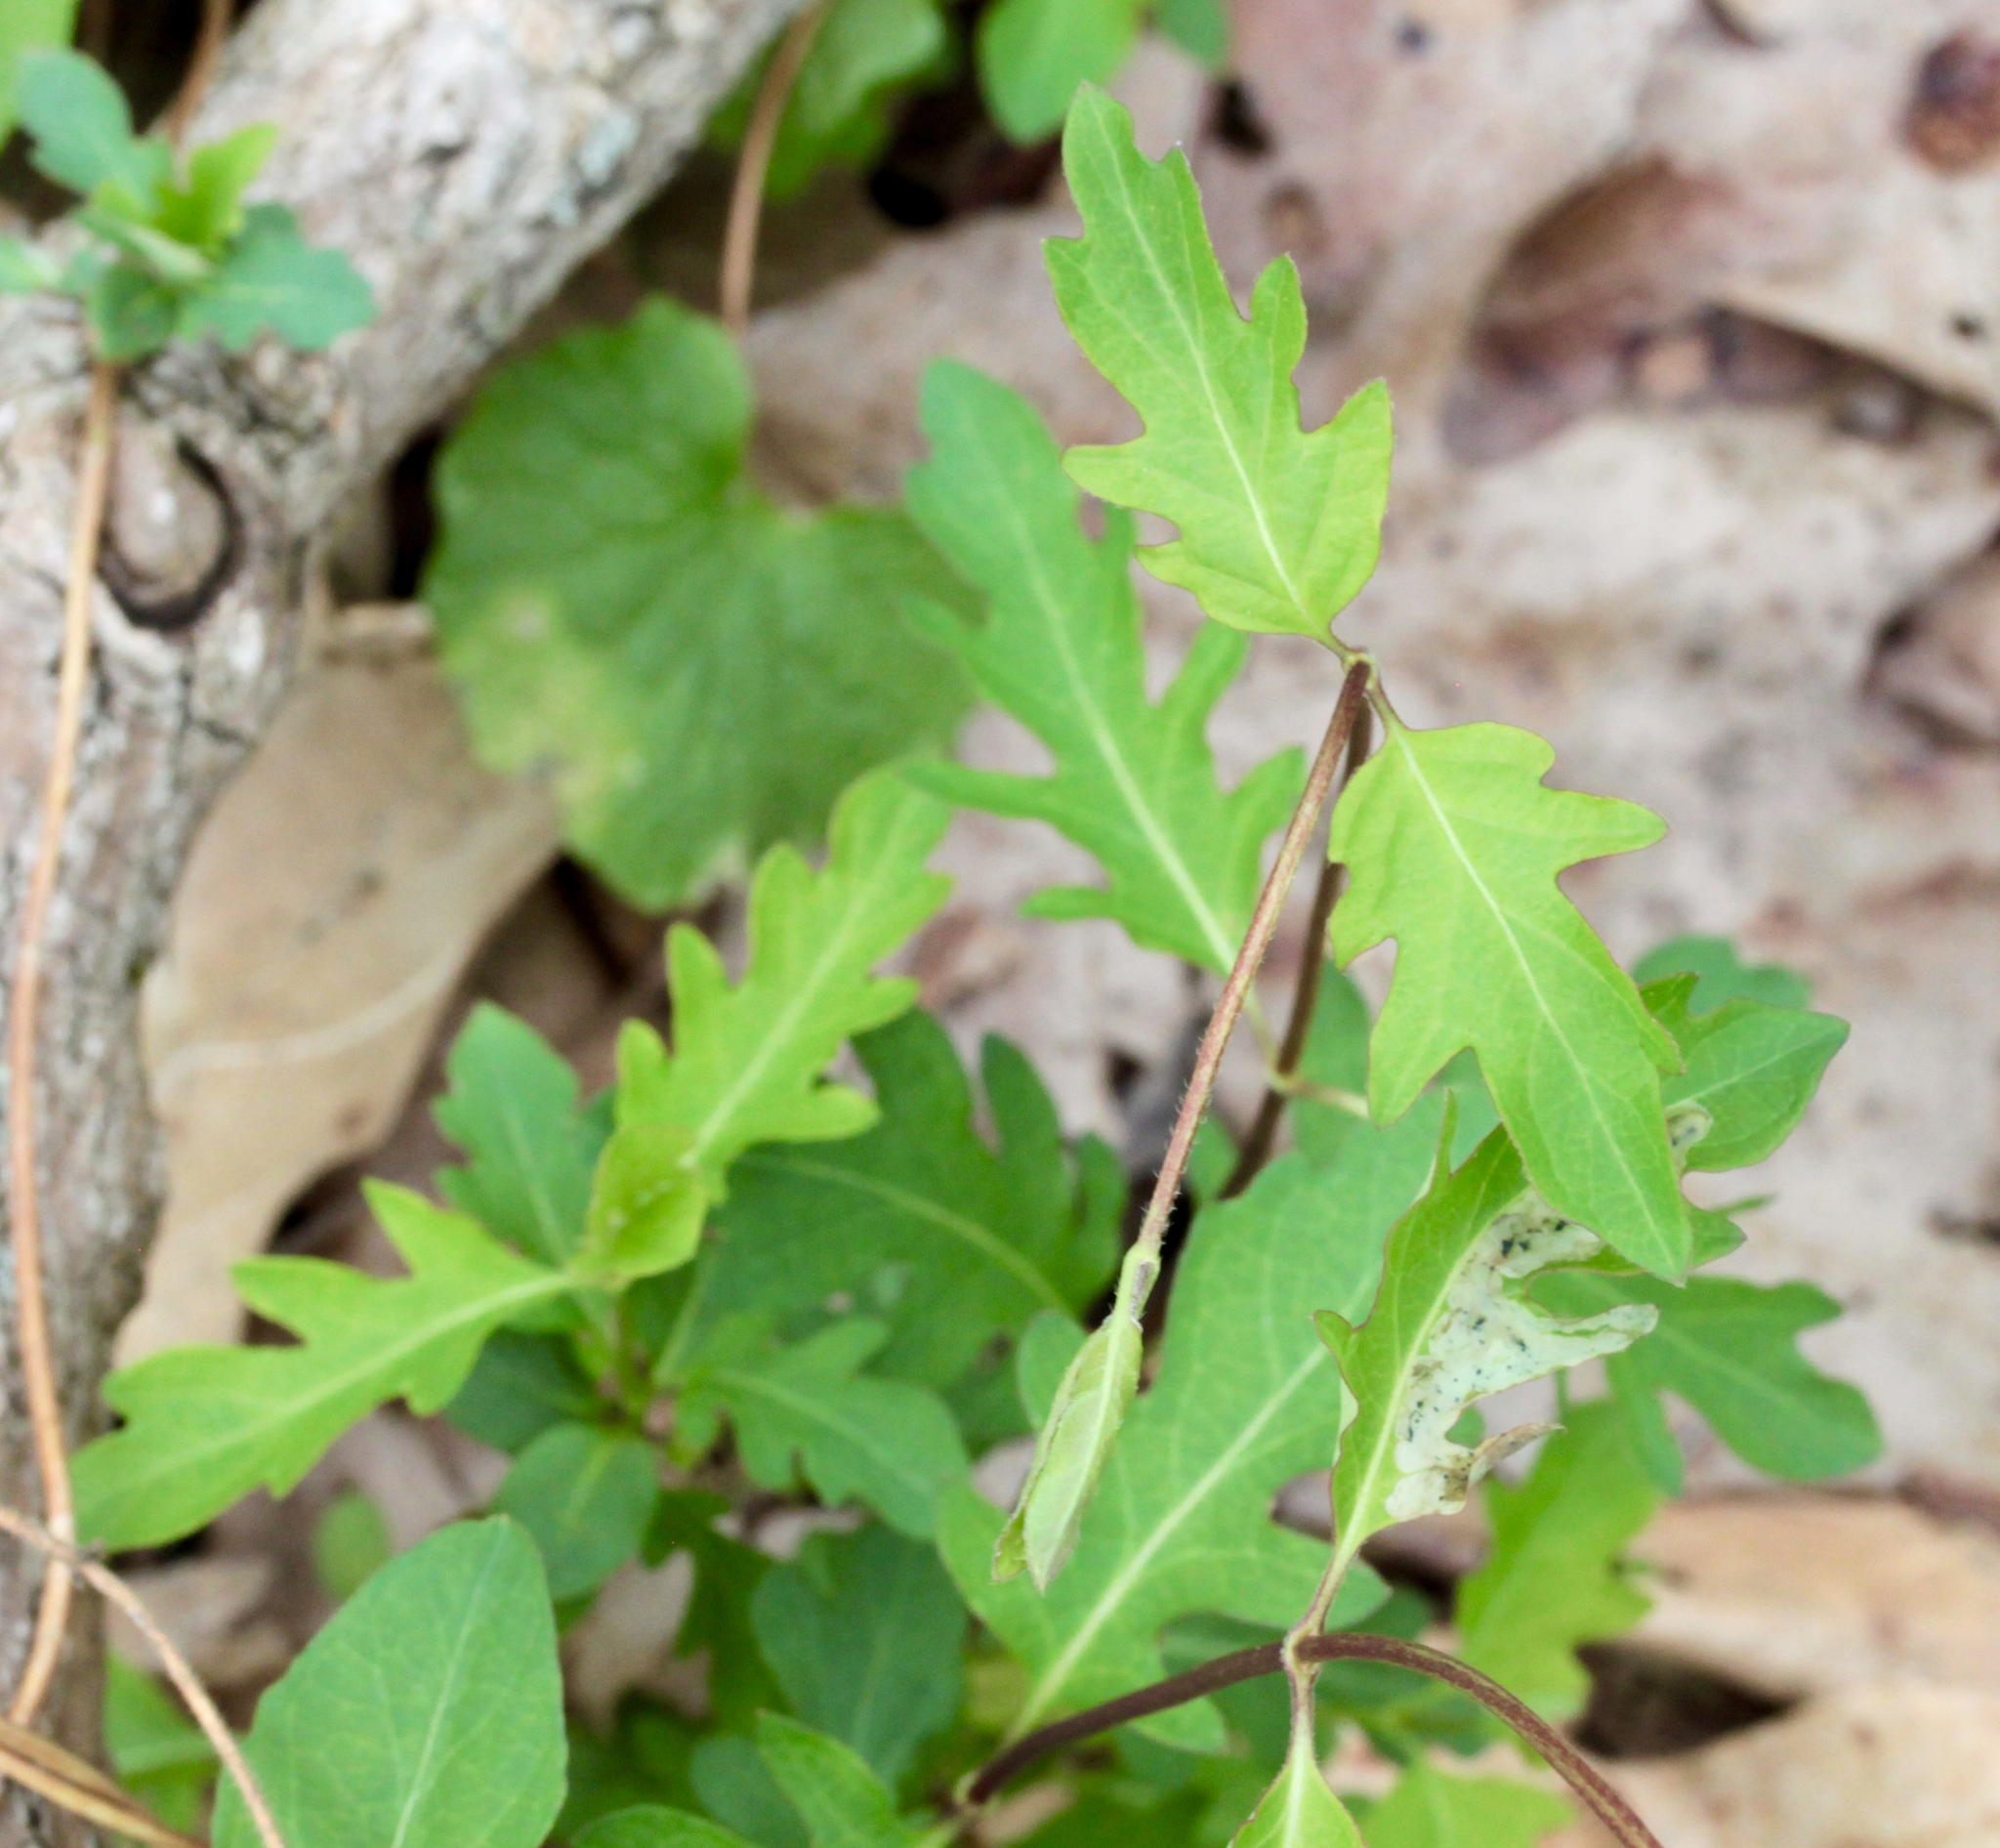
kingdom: Plantae
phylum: Tracheophyta
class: Magnoliopsida
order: Dipsacales
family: Caprifoliaceae
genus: Lonicera
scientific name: Lonicera japonica
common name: Japanese honeysuckle
